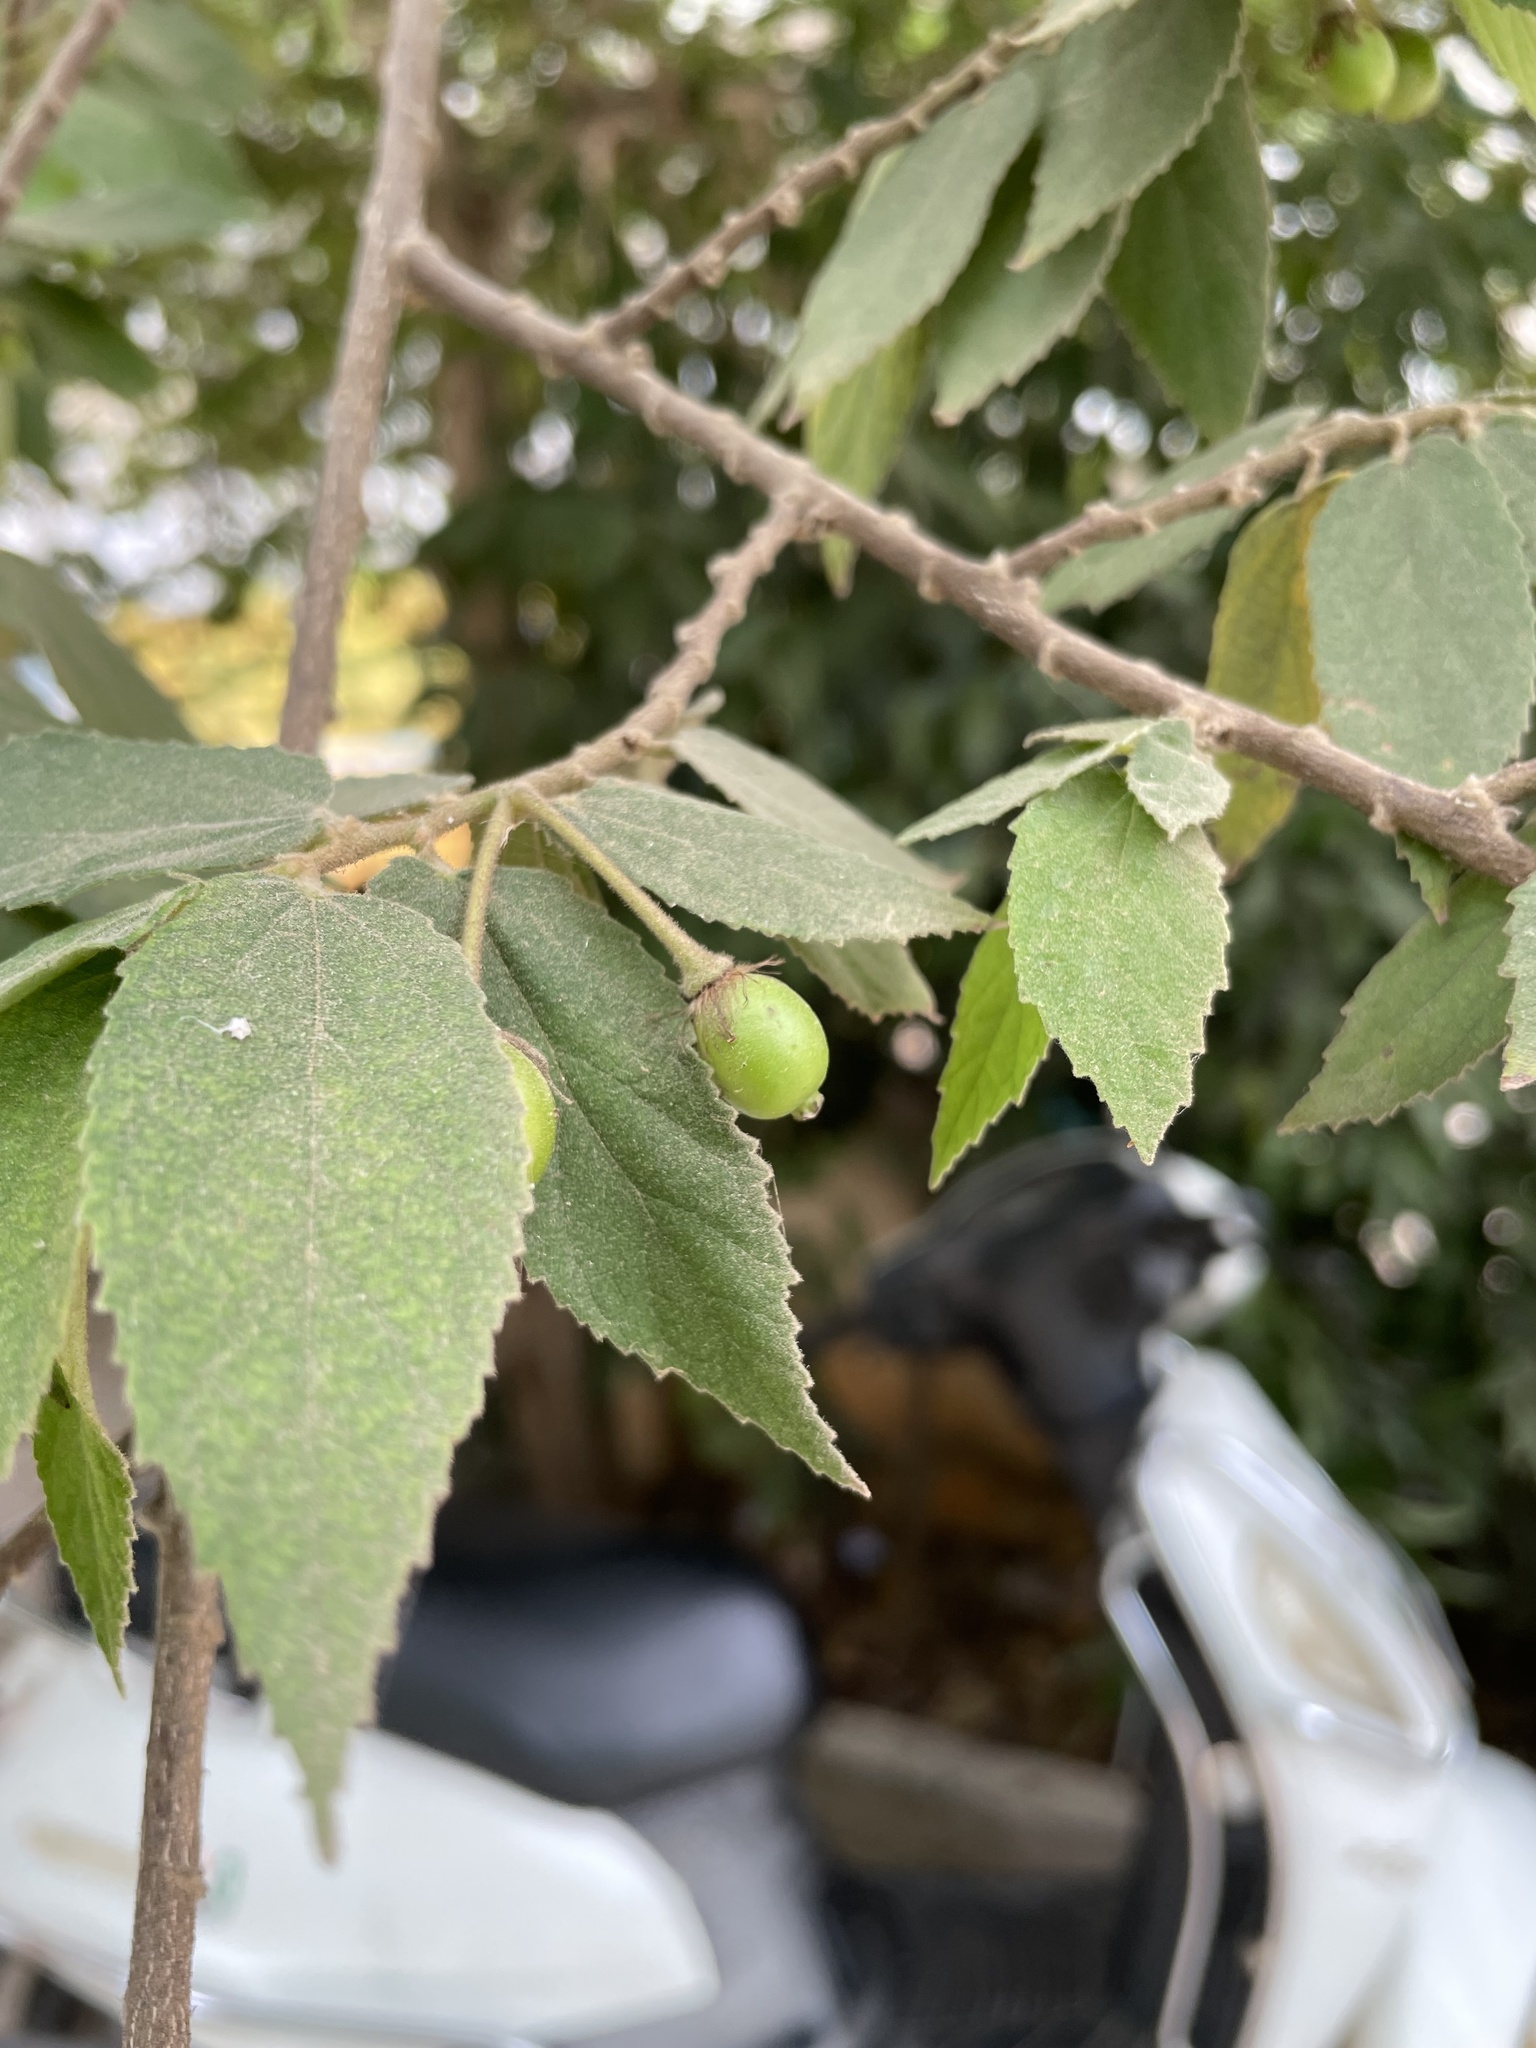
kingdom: Plantae
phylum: Tracheophyta
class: Magnoliopsida
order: Malvales
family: Muntingiaceae
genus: Muntingia
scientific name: Muntingia calabura
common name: Strawberrytree
